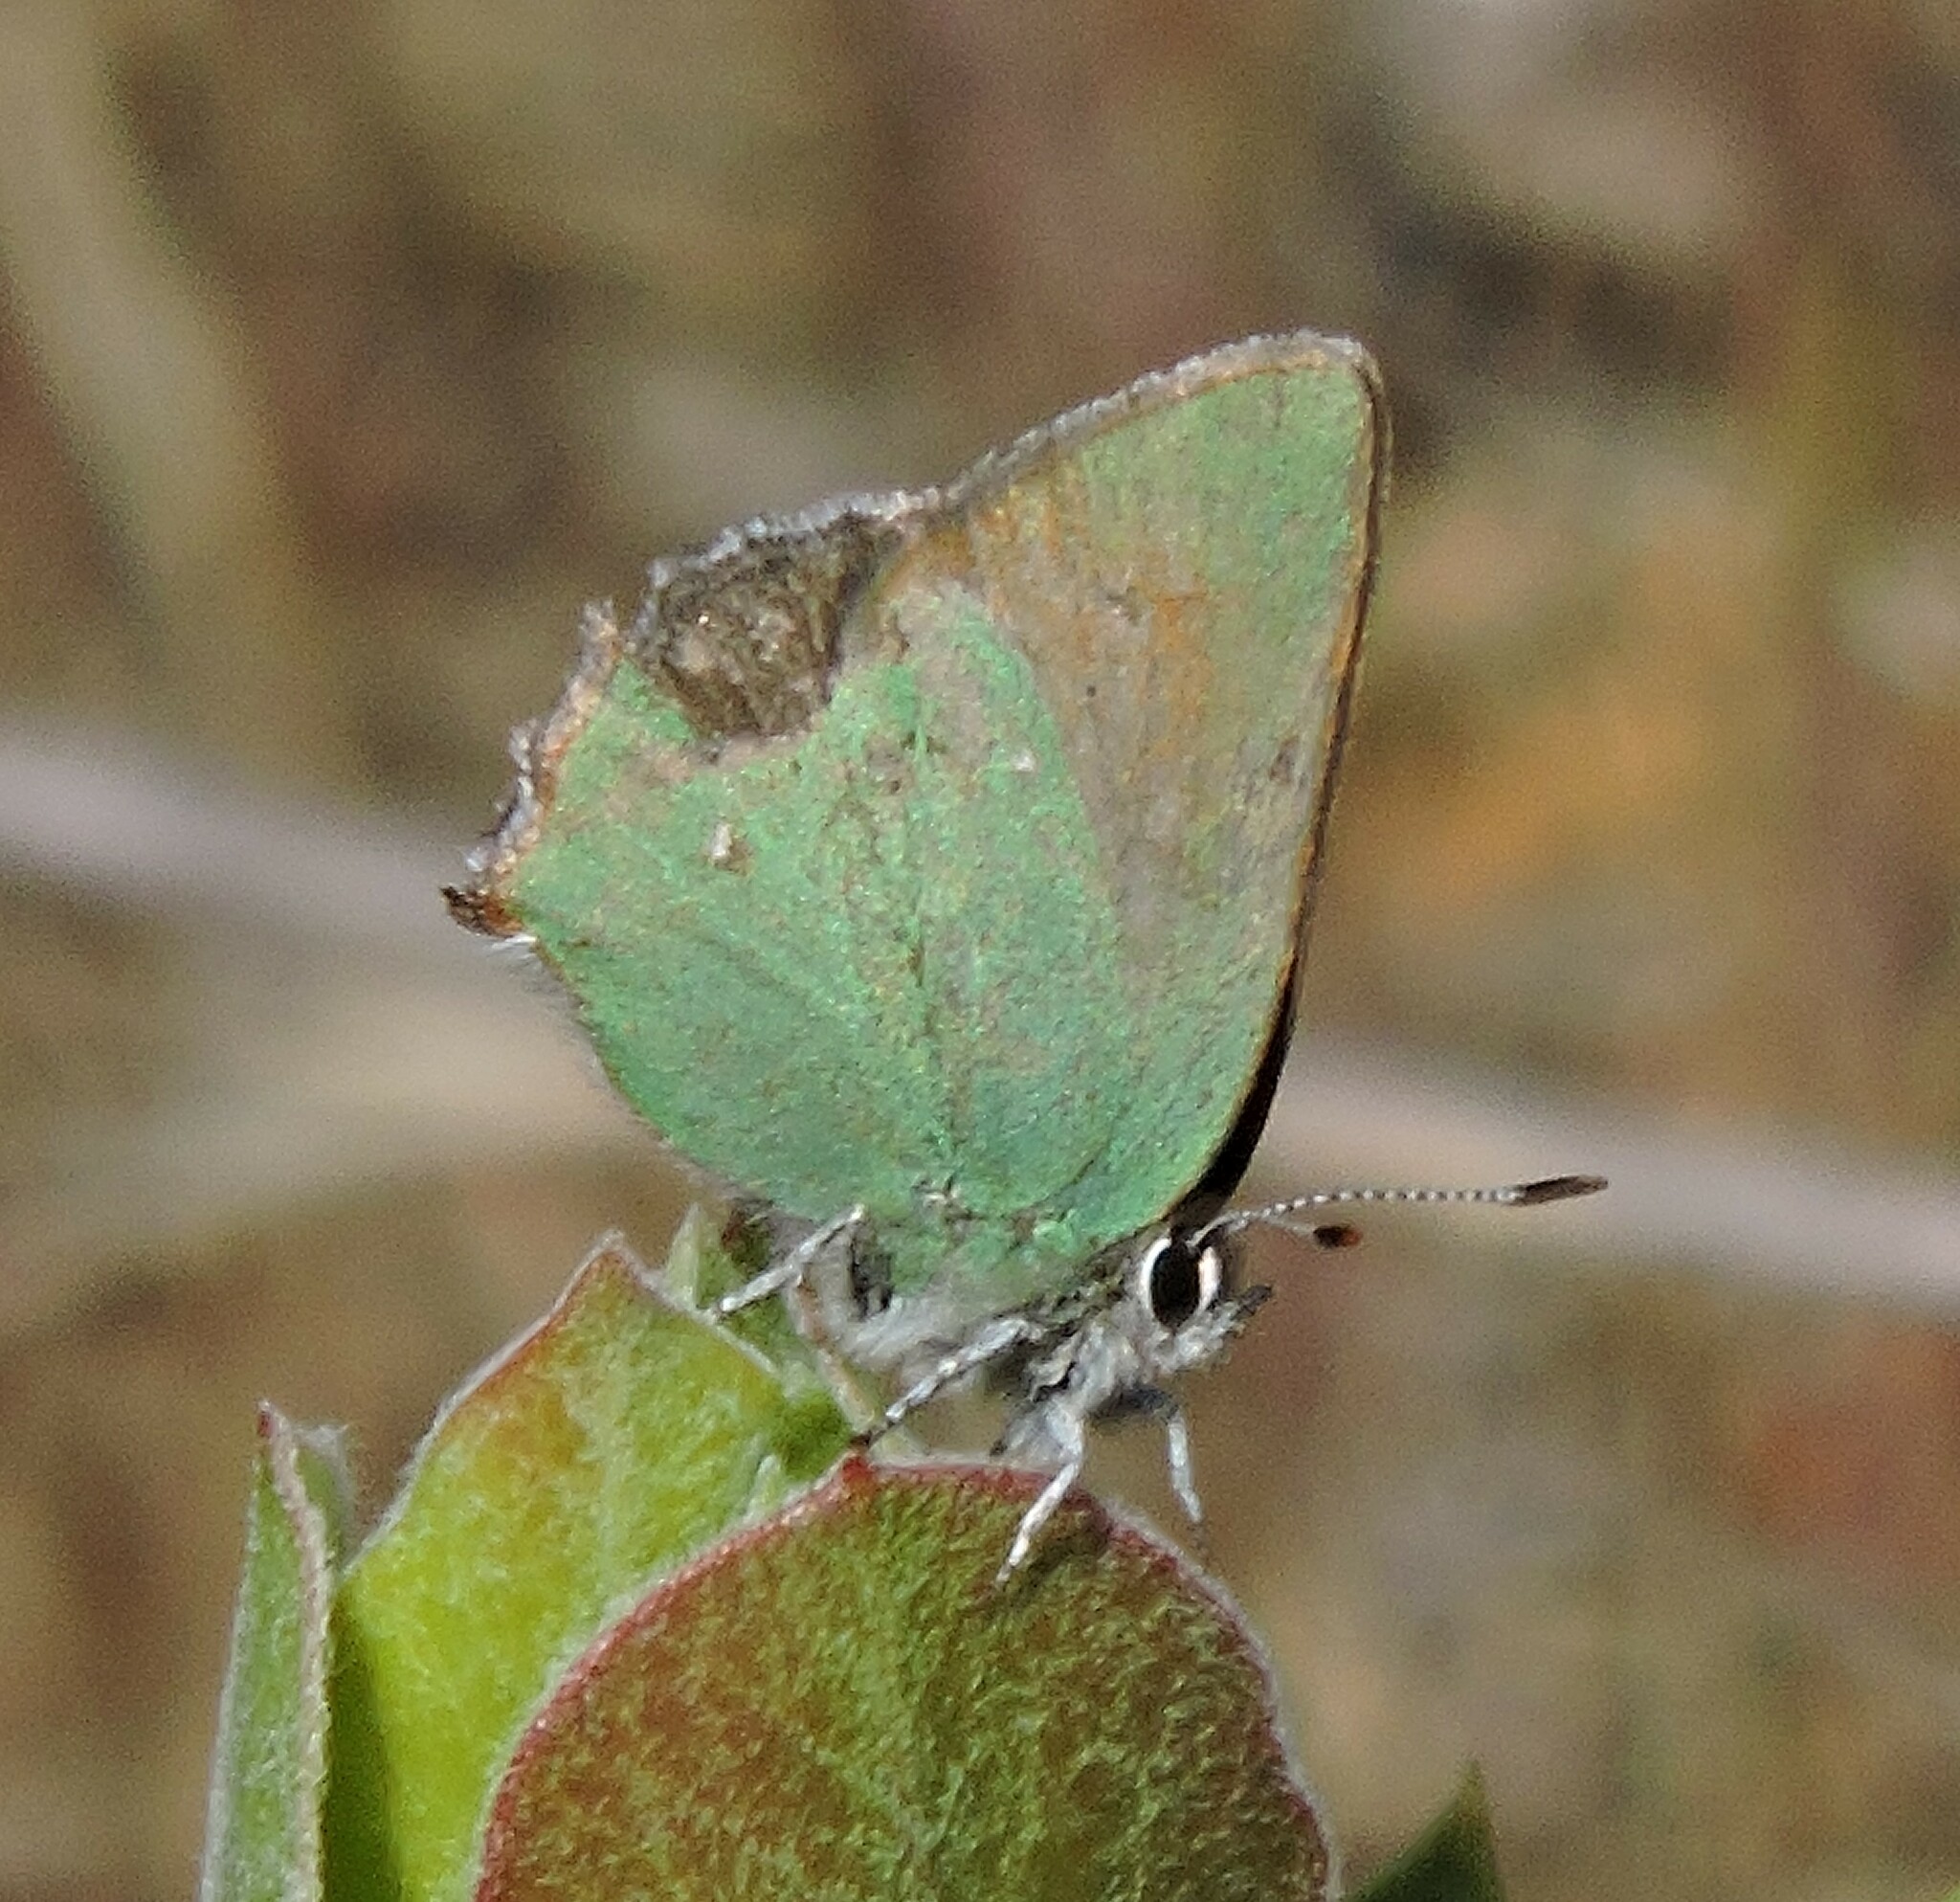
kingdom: Animalia
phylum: Arthropoda
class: Insecta
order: Lepidoptera
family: Lycaenidae
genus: Callophrys
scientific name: Callophrys dumetorum
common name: Bramble hairstreak
